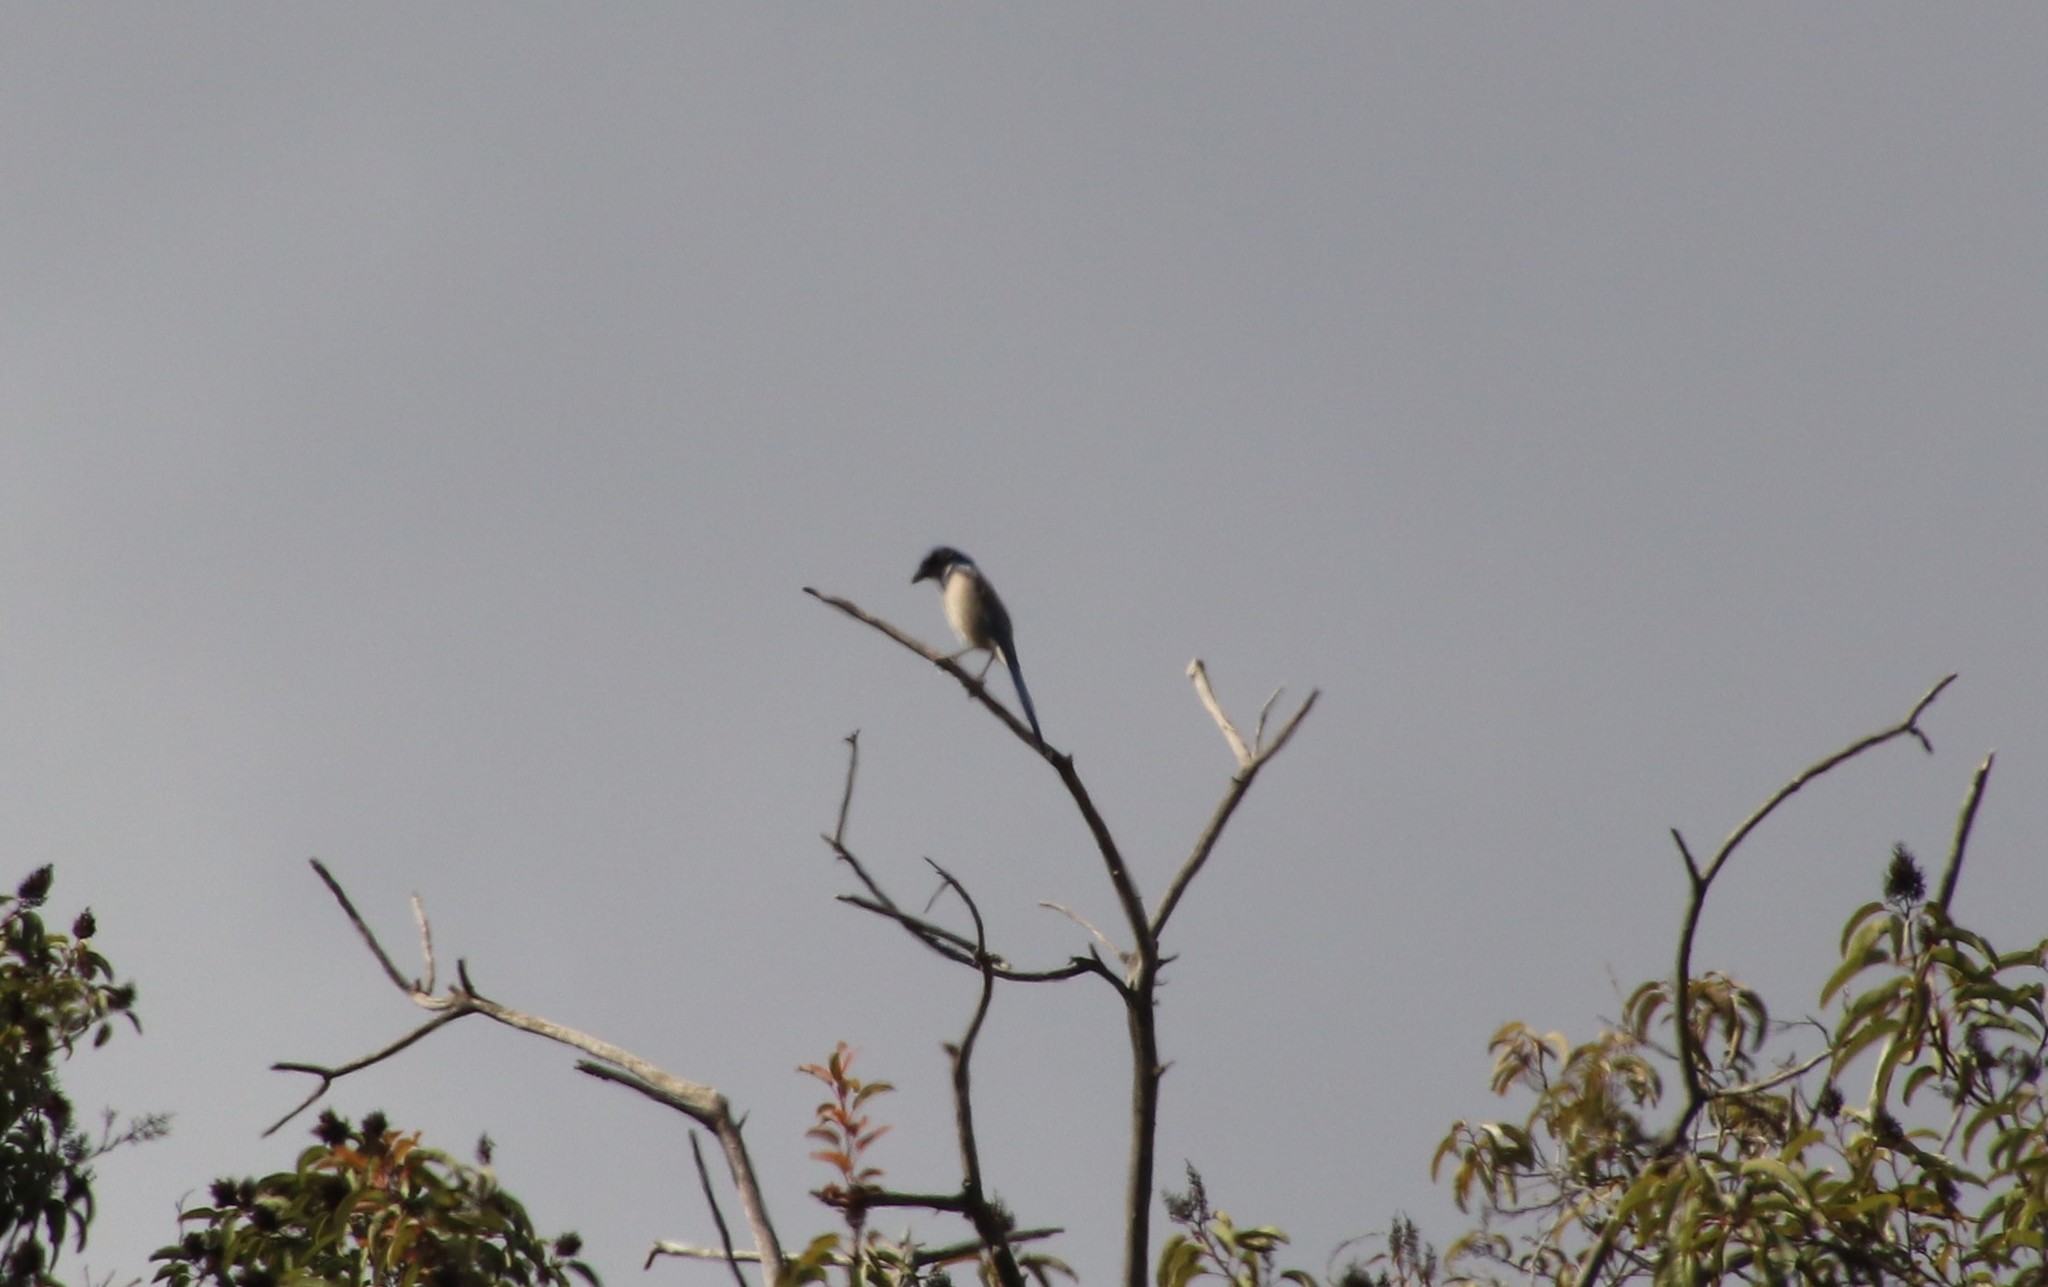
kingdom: Animalia
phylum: Chordata
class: Aves
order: Passeriformes
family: Corvidae
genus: Aphelocoma
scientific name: Aphelocoma californica
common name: California scrub-jay
